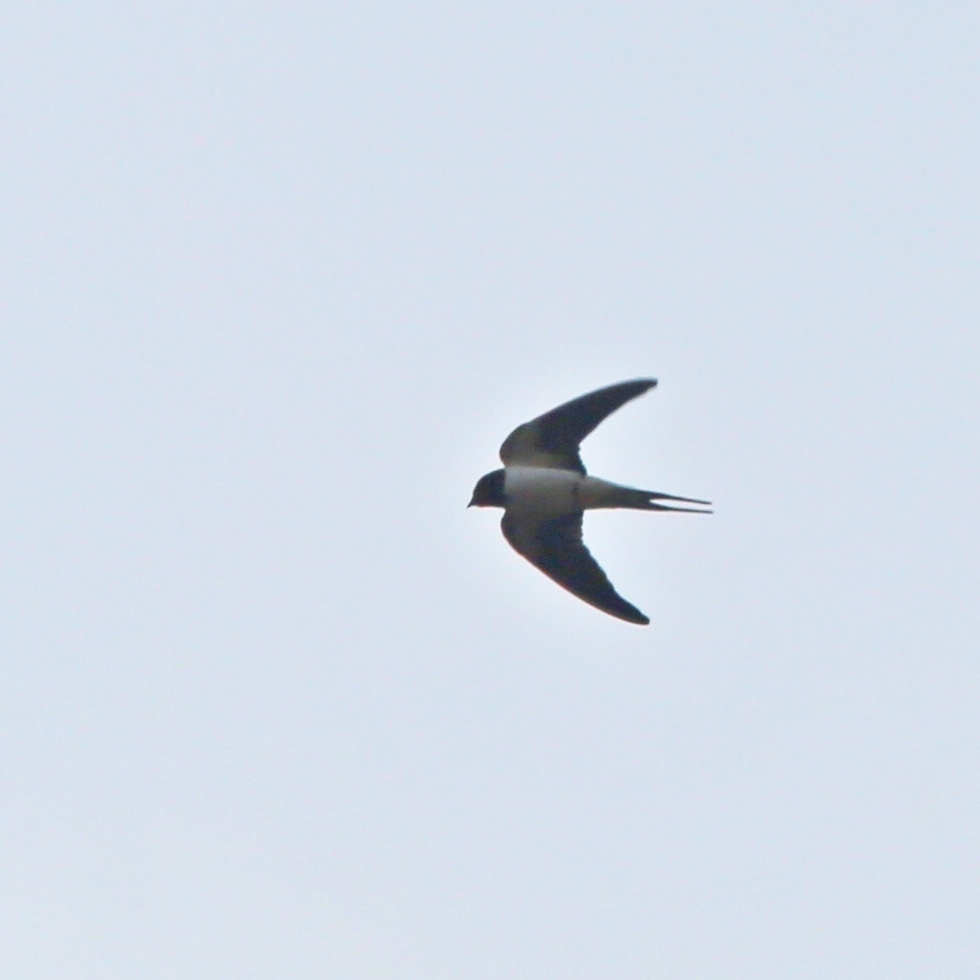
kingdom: Animalia
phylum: Chordata
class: Aves
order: Passeriformes
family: Hirundinidae
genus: Hirundo
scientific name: Hirundo rustica
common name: Barn swallow
